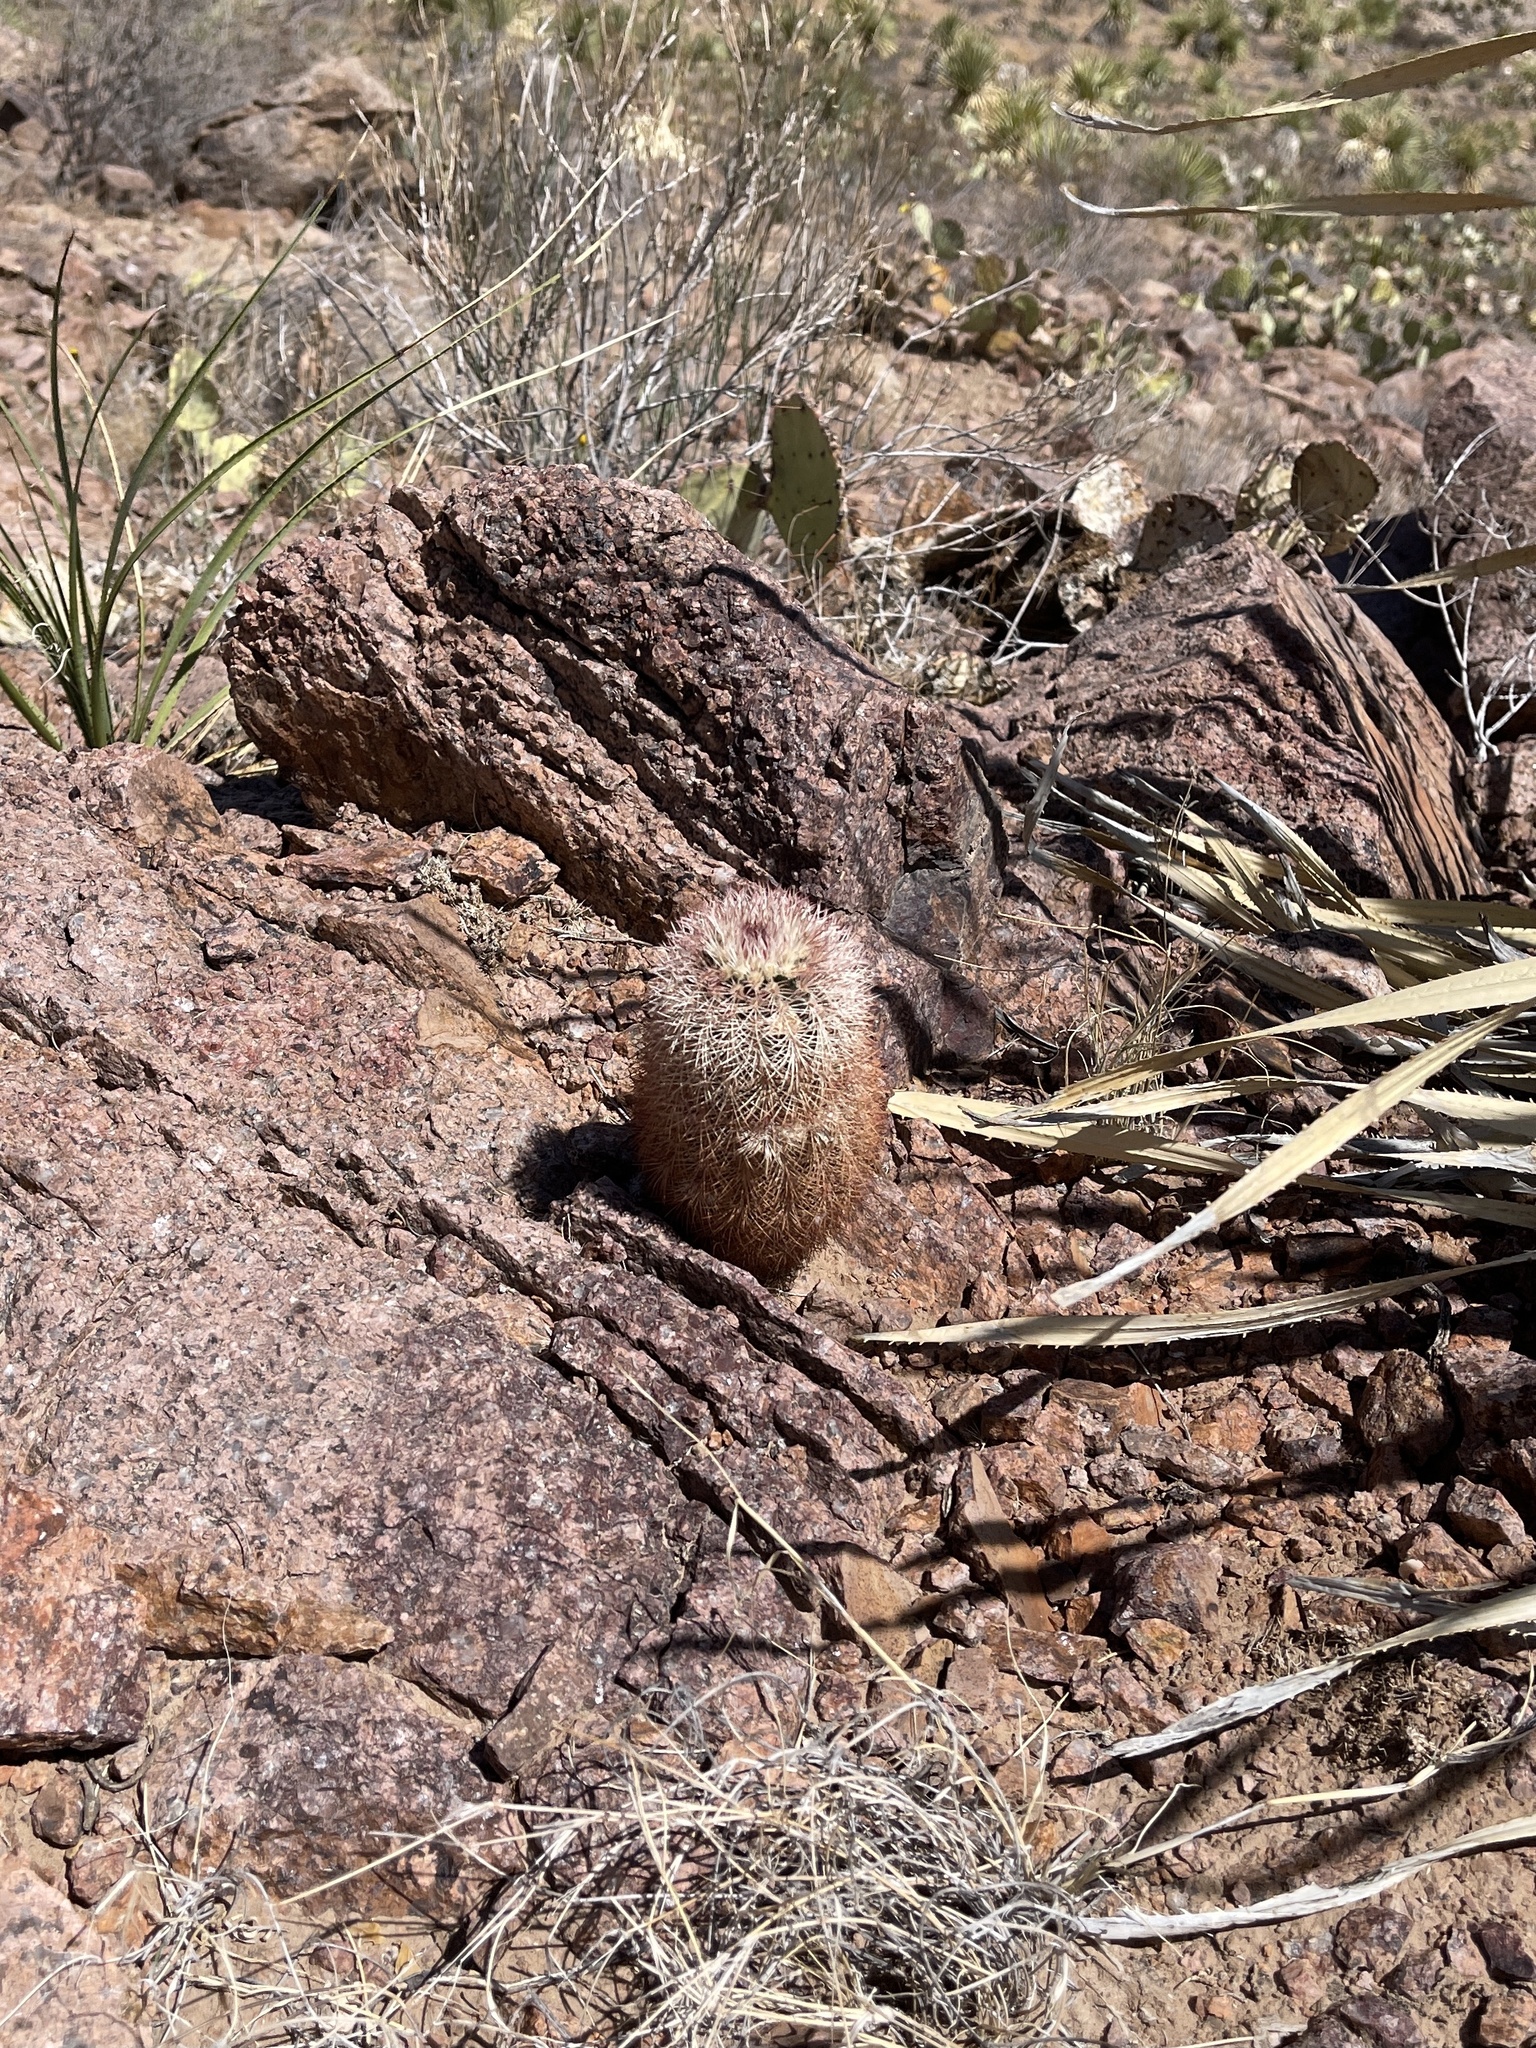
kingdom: Plantae
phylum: Tracheophyta
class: Magnoliopsida
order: Caryophyllales
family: Cactaceae
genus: Echinocereus
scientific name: Echinocereus dasyacanthus
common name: Spiny hedgehog cactus
